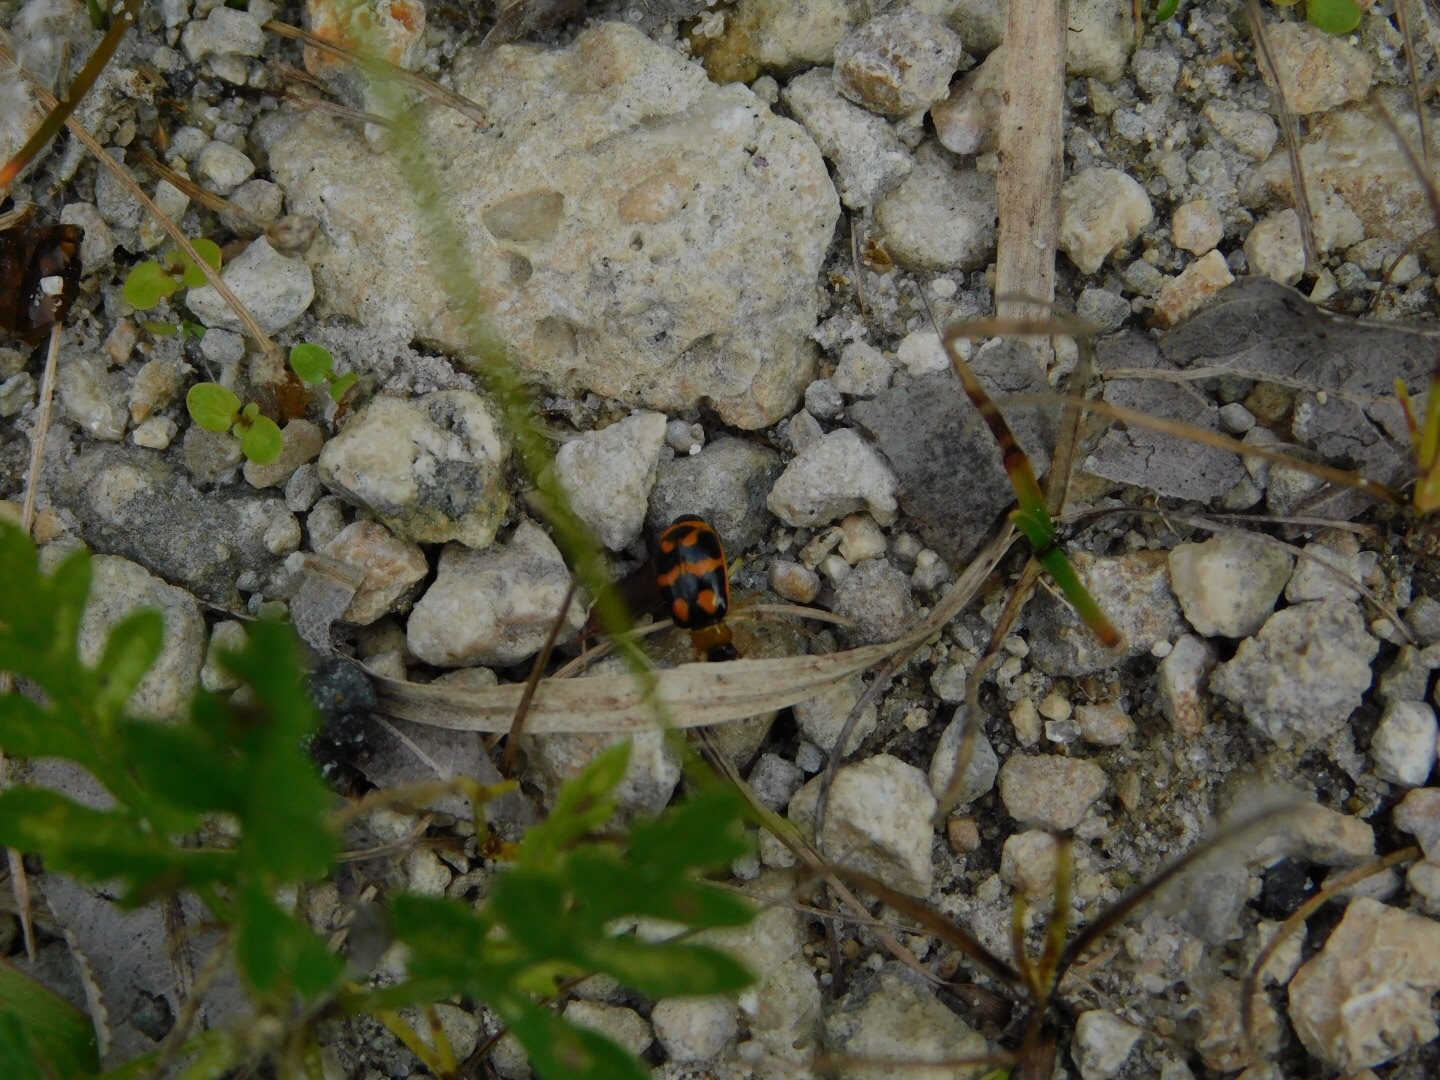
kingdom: Animalia
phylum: Arthropoda
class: Insecta
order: Coleoptera
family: Chrysomelidae
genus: Cerotoma
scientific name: Cerotoma ruficornis
